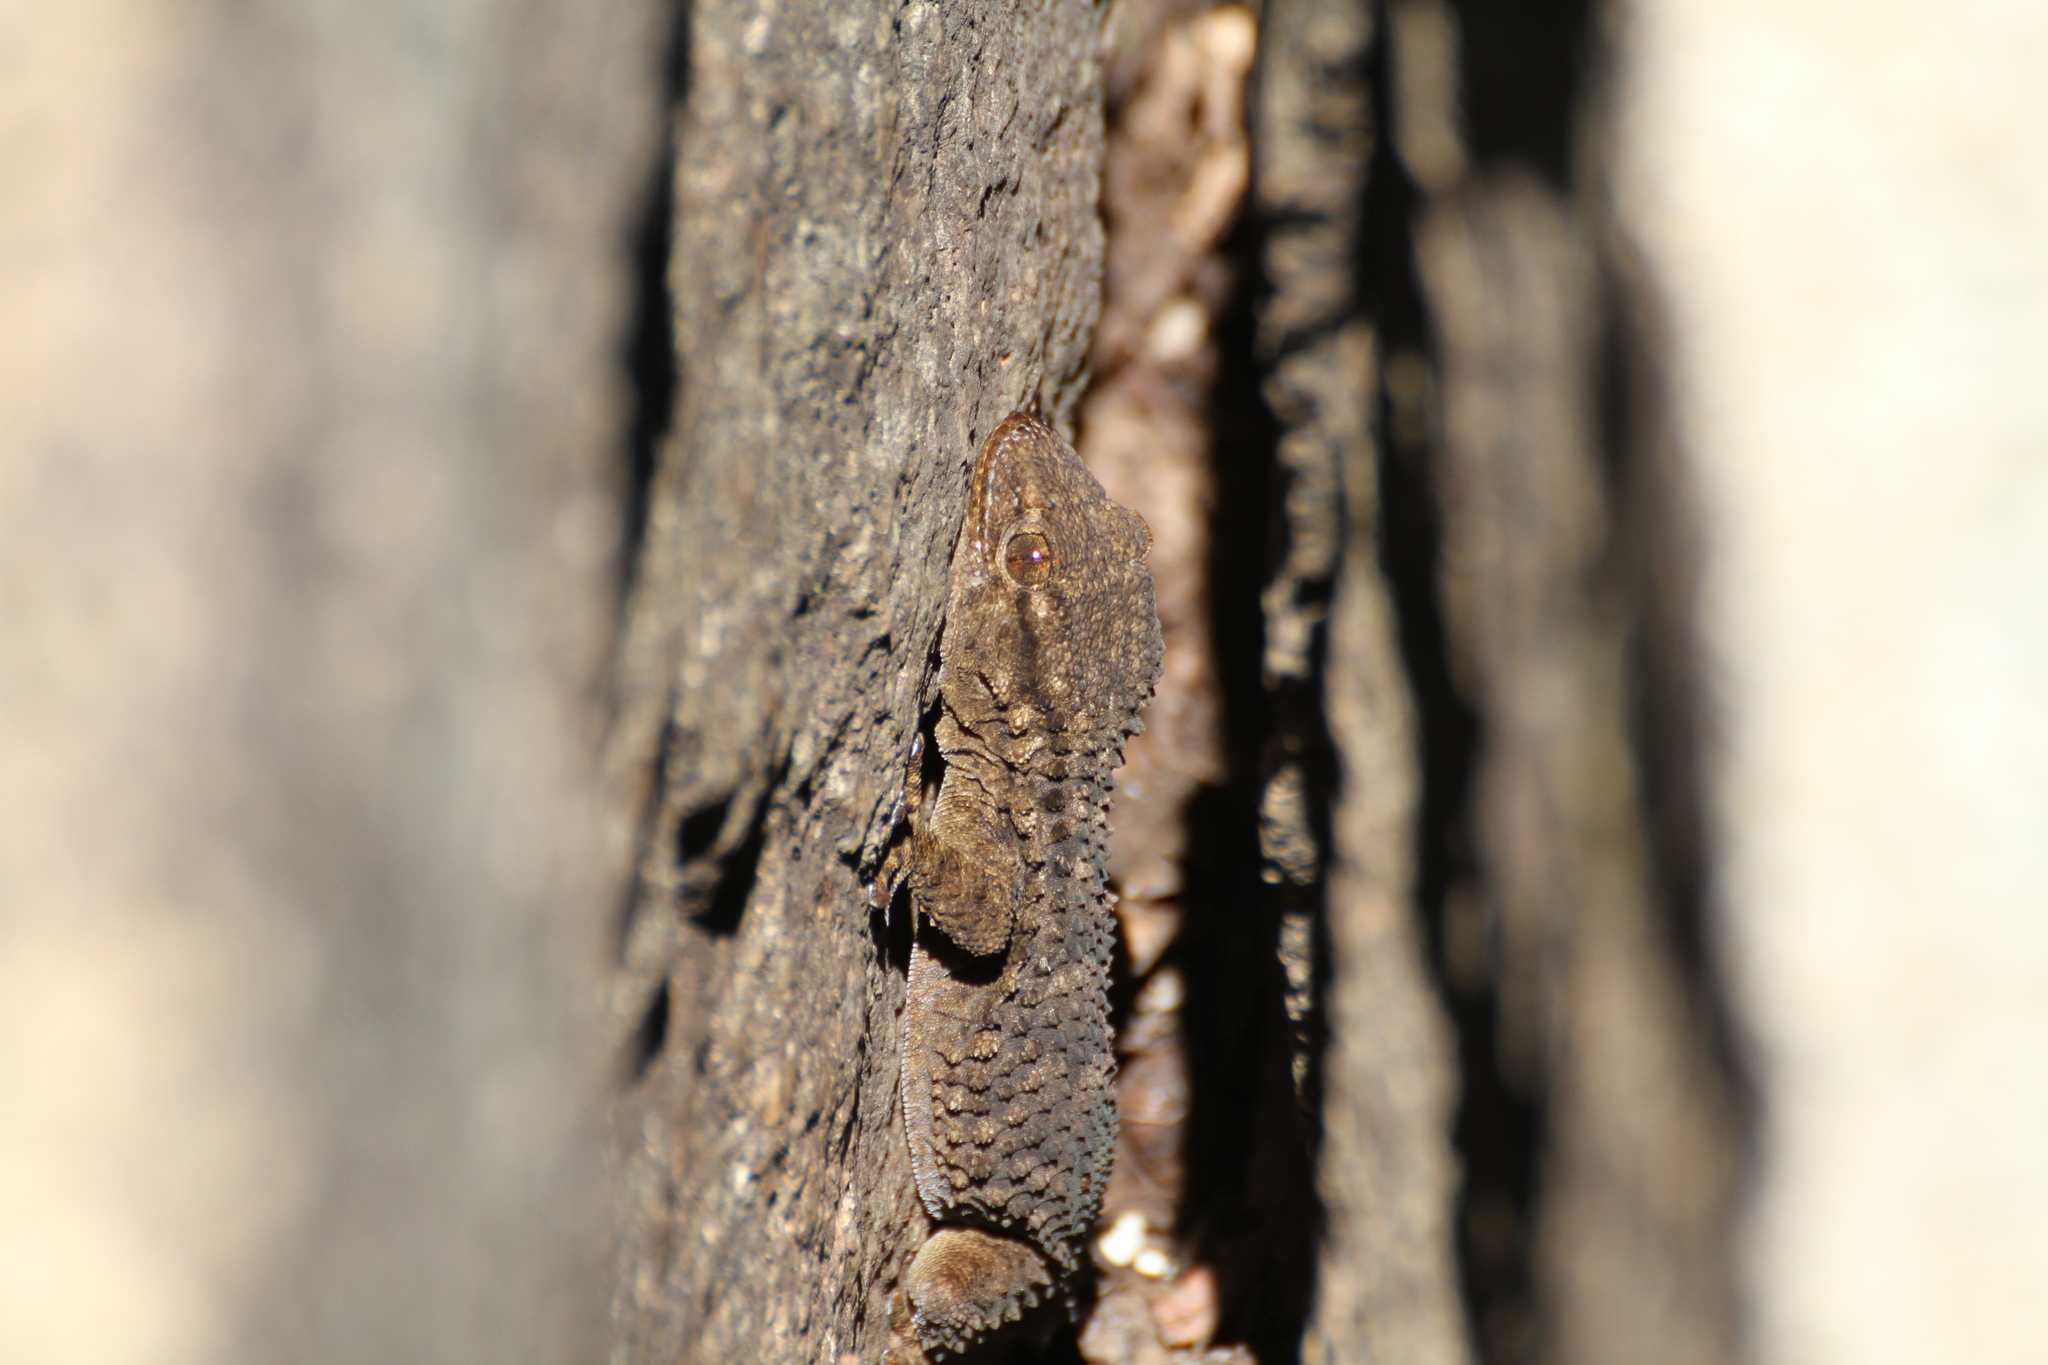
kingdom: Animalia
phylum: Chordata
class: Squamata
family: Phyllodactylidae
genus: Tarentola
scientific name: Tarentola mauritanica
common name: Moorish gecko
